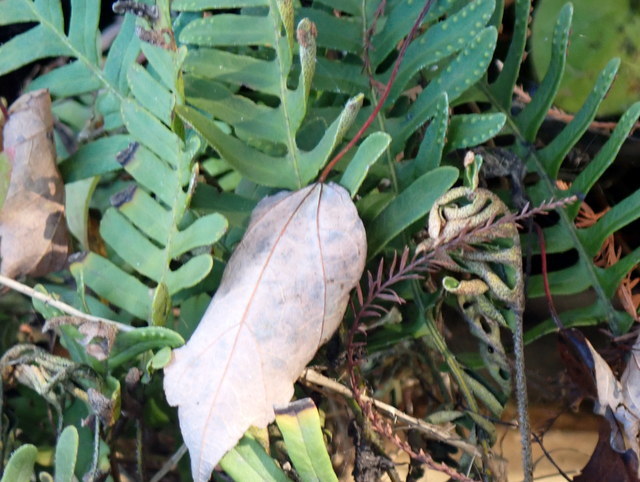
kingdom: Plantae
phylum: Tracheophyta
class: Polypodiopsida
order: Polypodiales
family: Polypodiaceae
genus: Pleopeltis
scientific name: Pleopeltis michauxiana
